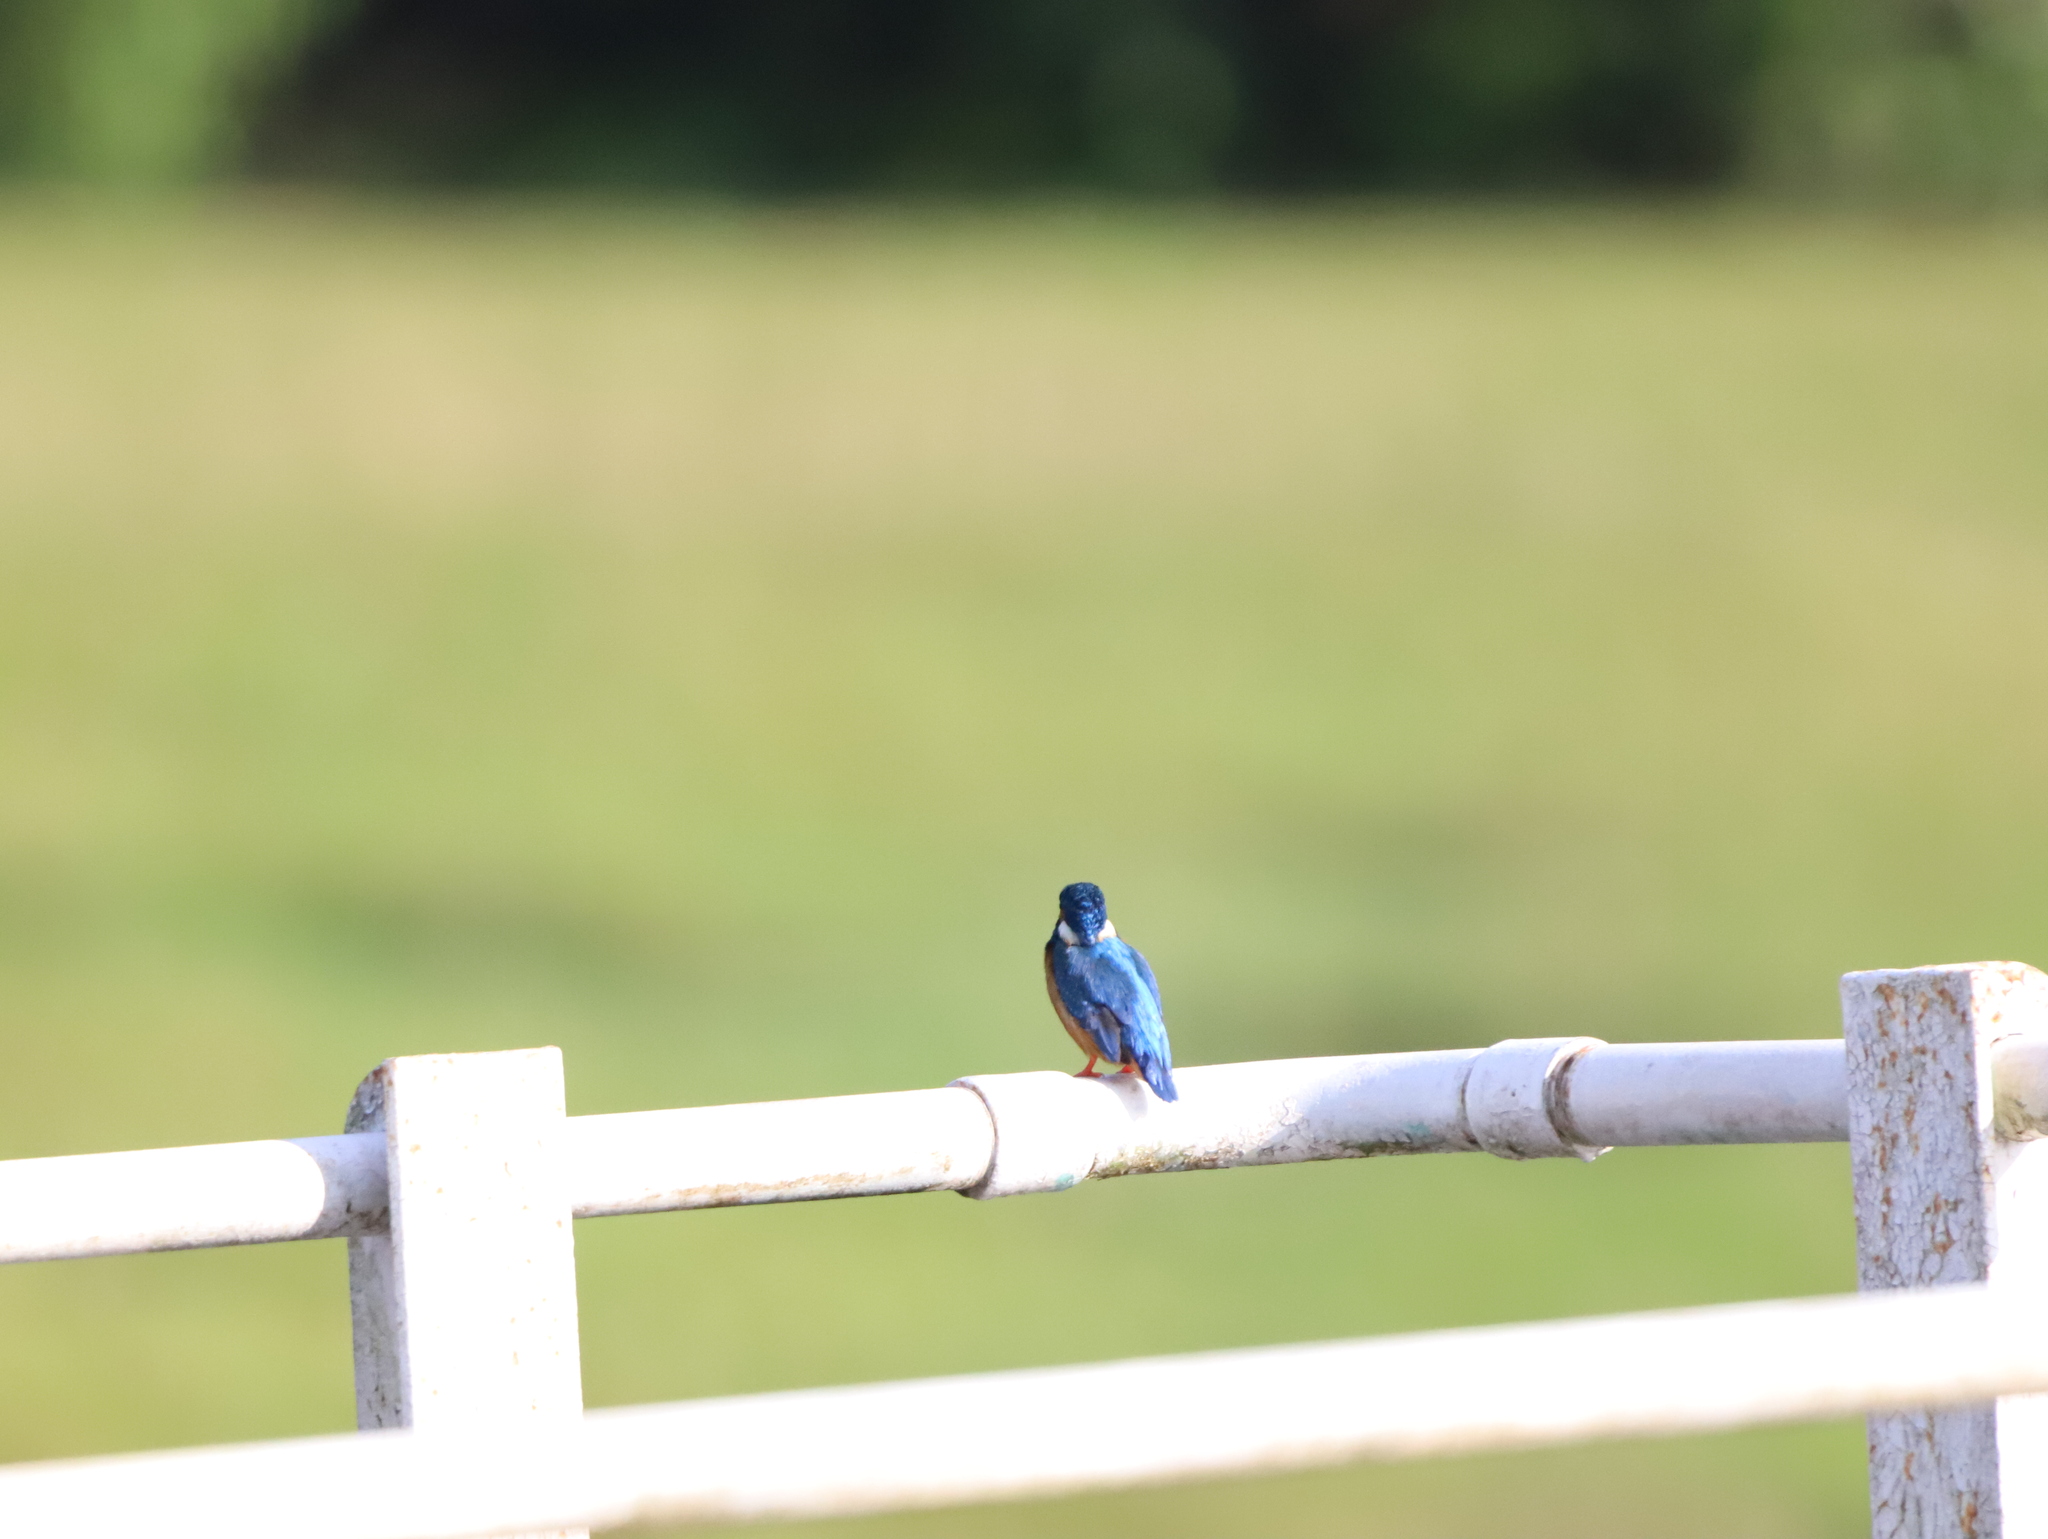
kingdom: Animalia
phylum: Chordata
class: Aves
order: Coraciiformes
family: Alcedinidae
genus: Alcedo
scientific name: Alcedo atthis
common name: Common kingfisher
